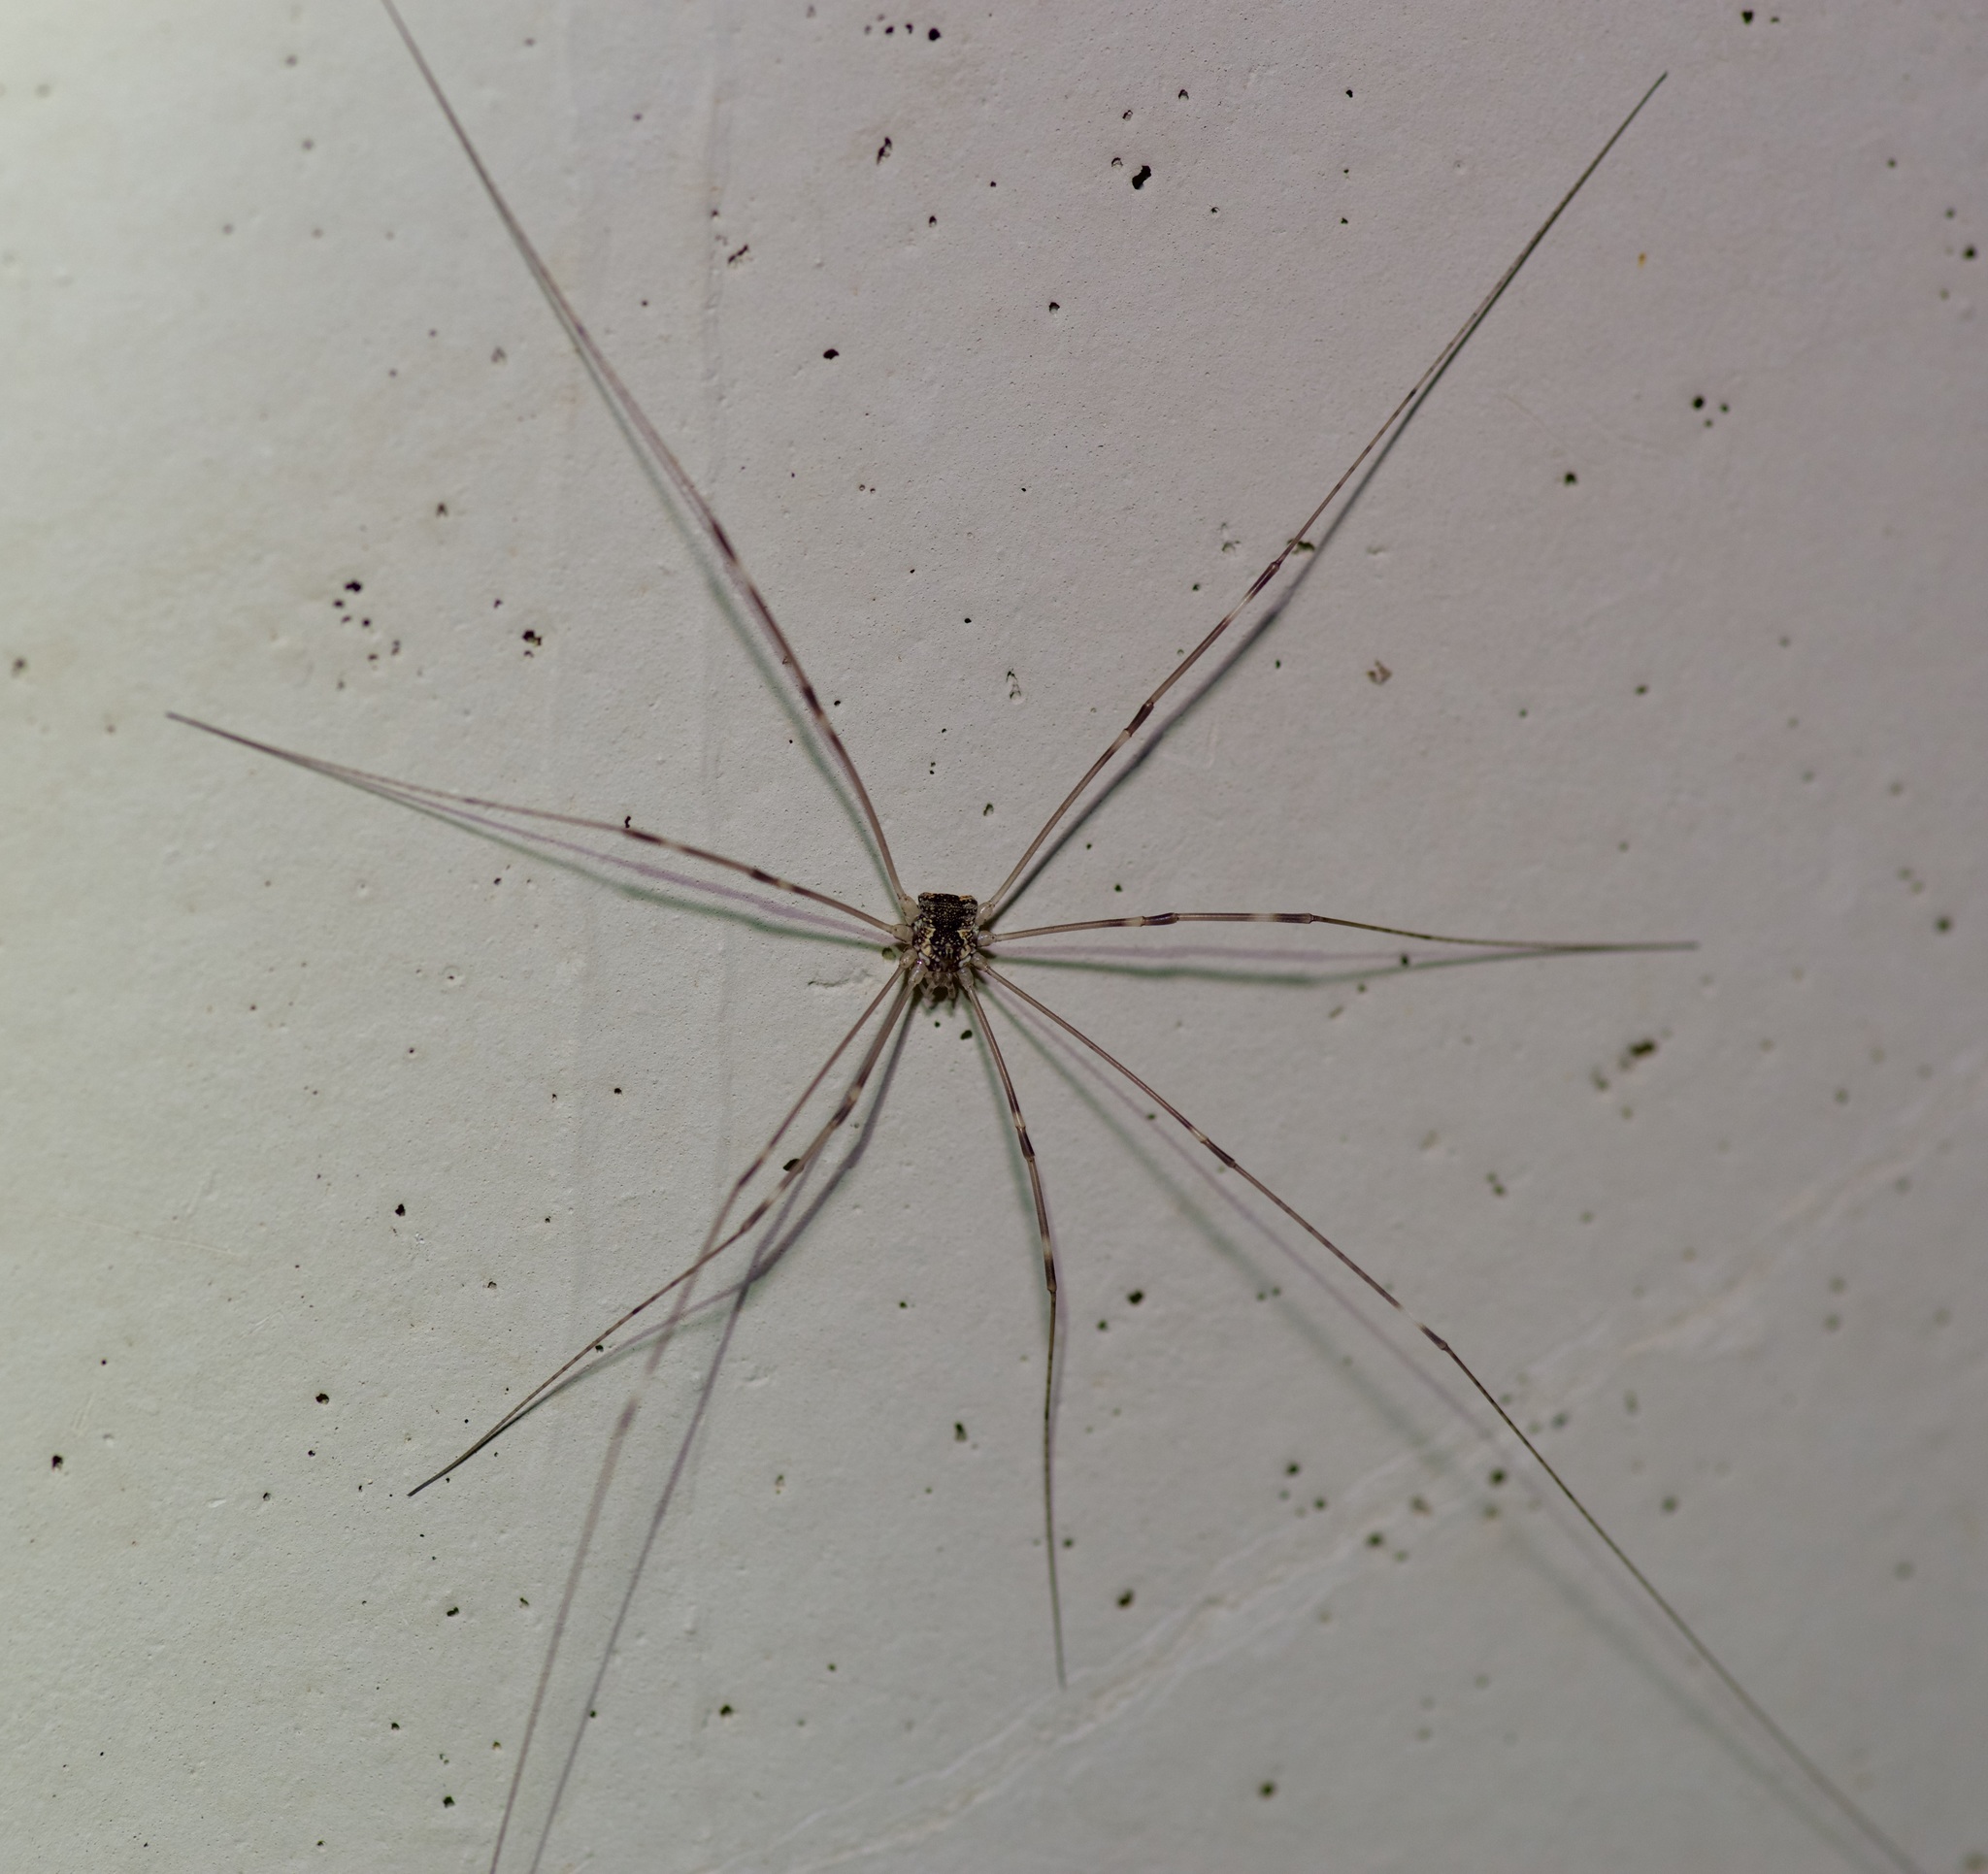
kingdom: Animalia
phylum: Arthropoda
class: Arachnida
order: Opiliones
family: Sclerosomatidae
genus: Leiobunum
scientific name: Leiobunum townsendi
